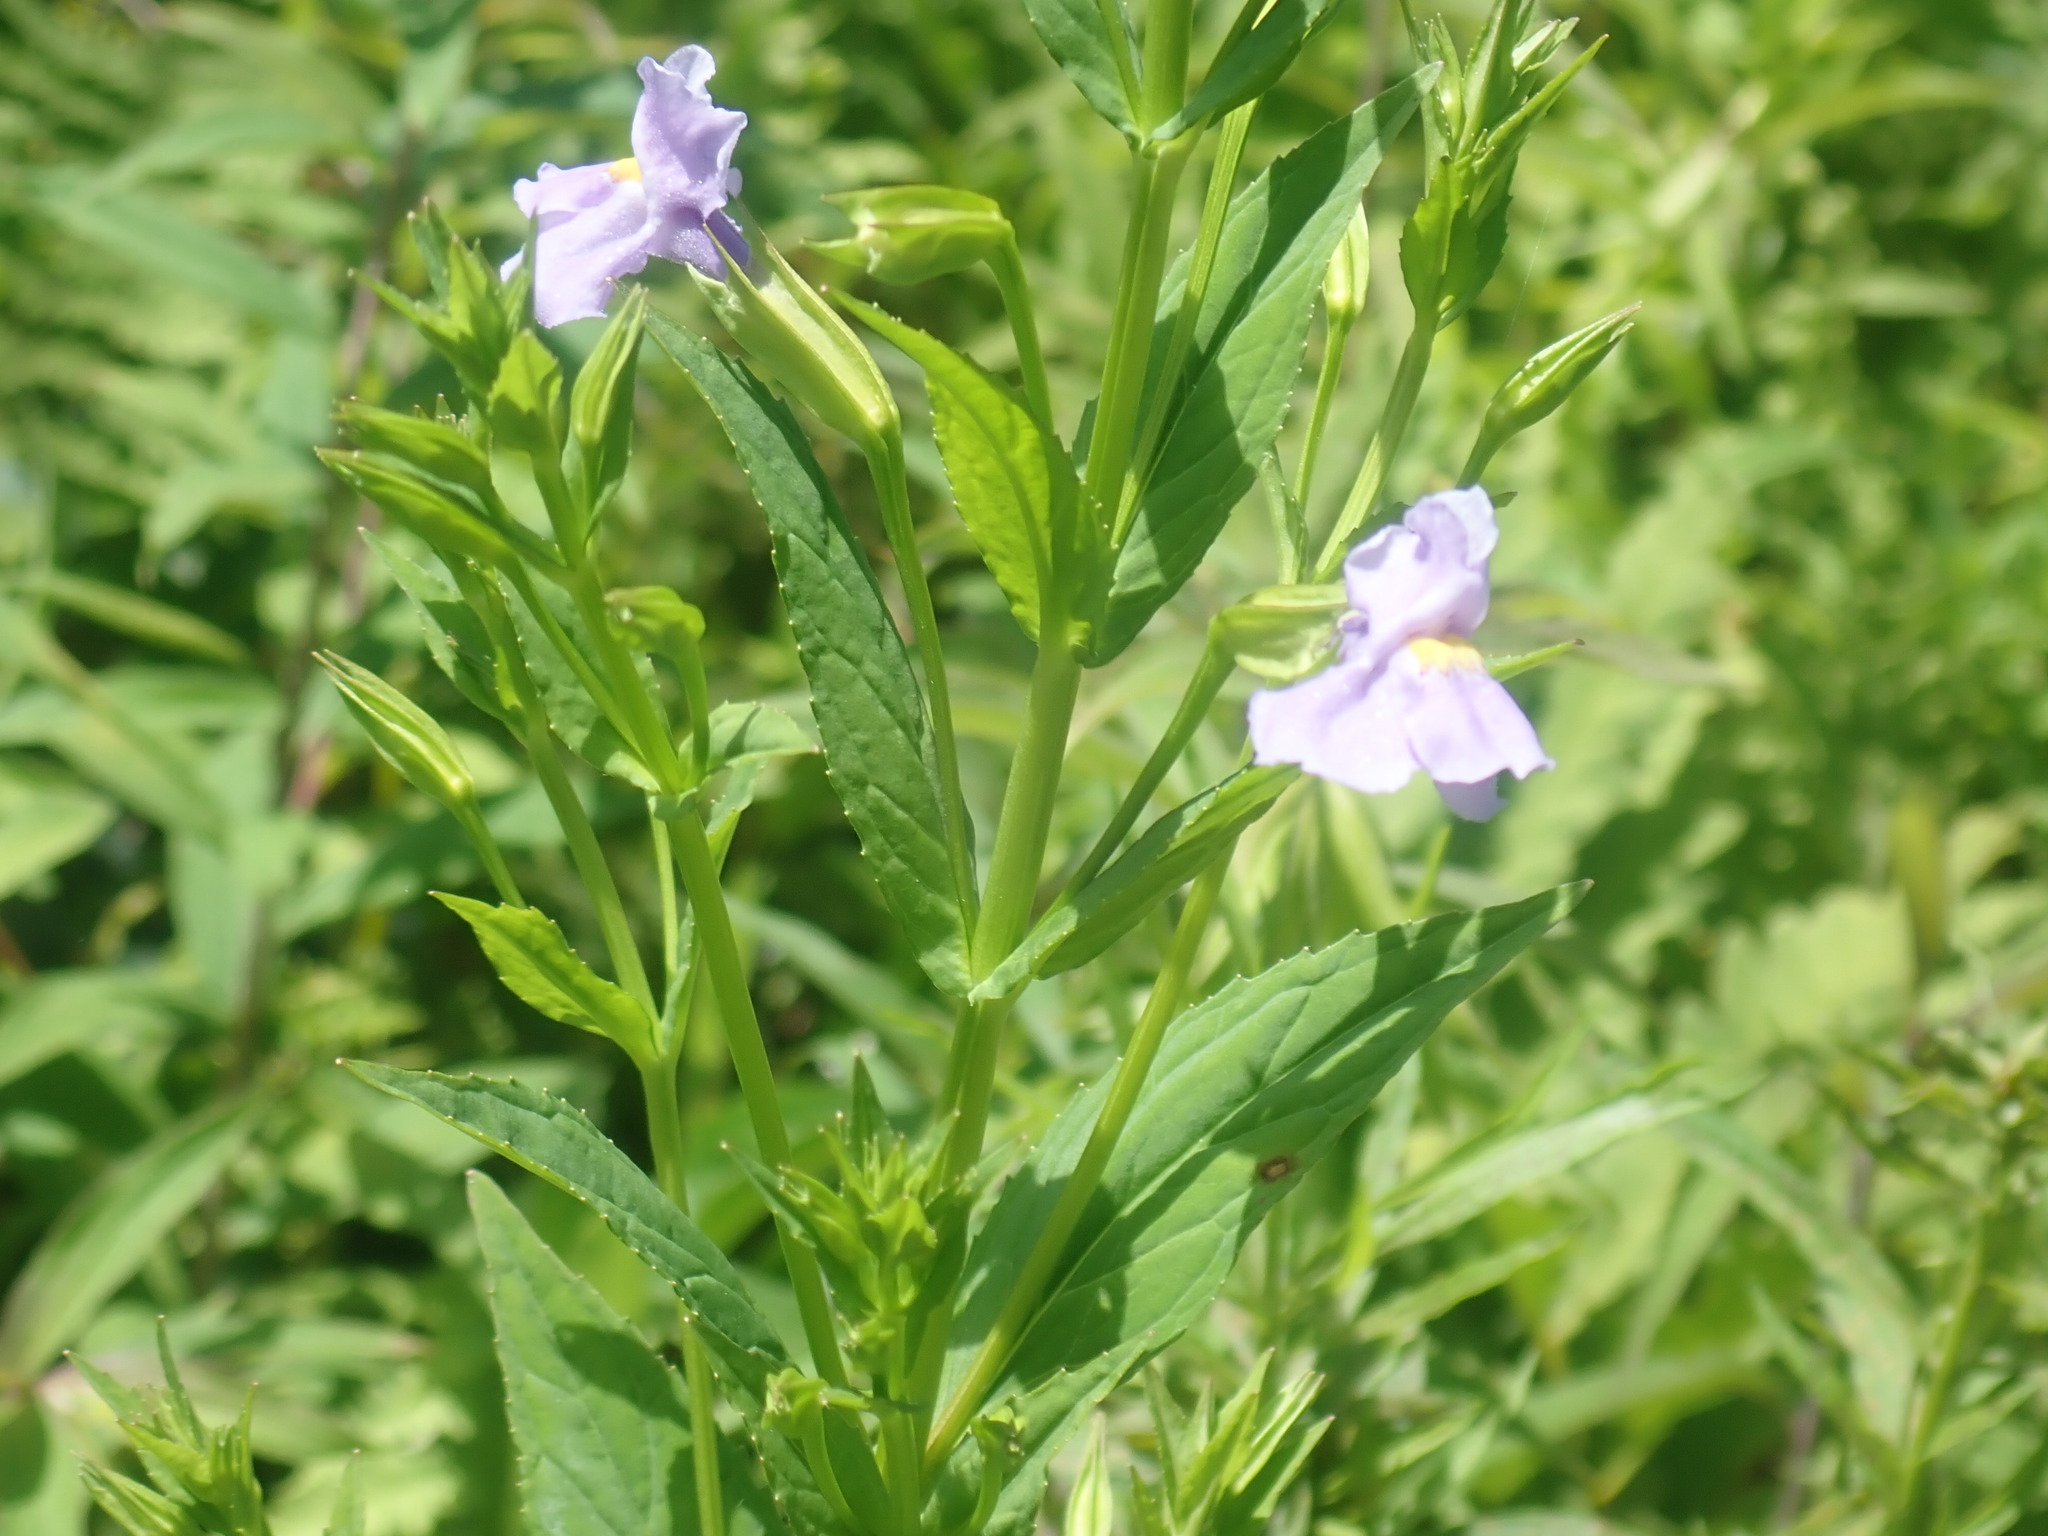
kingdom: Plantae
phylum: Tracheophyta
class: Magnoliopsida
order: Lamiales
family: Phrymaceae
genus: Mimulus
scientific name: Mimulus ringens
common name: Allegheny monkeyflower
